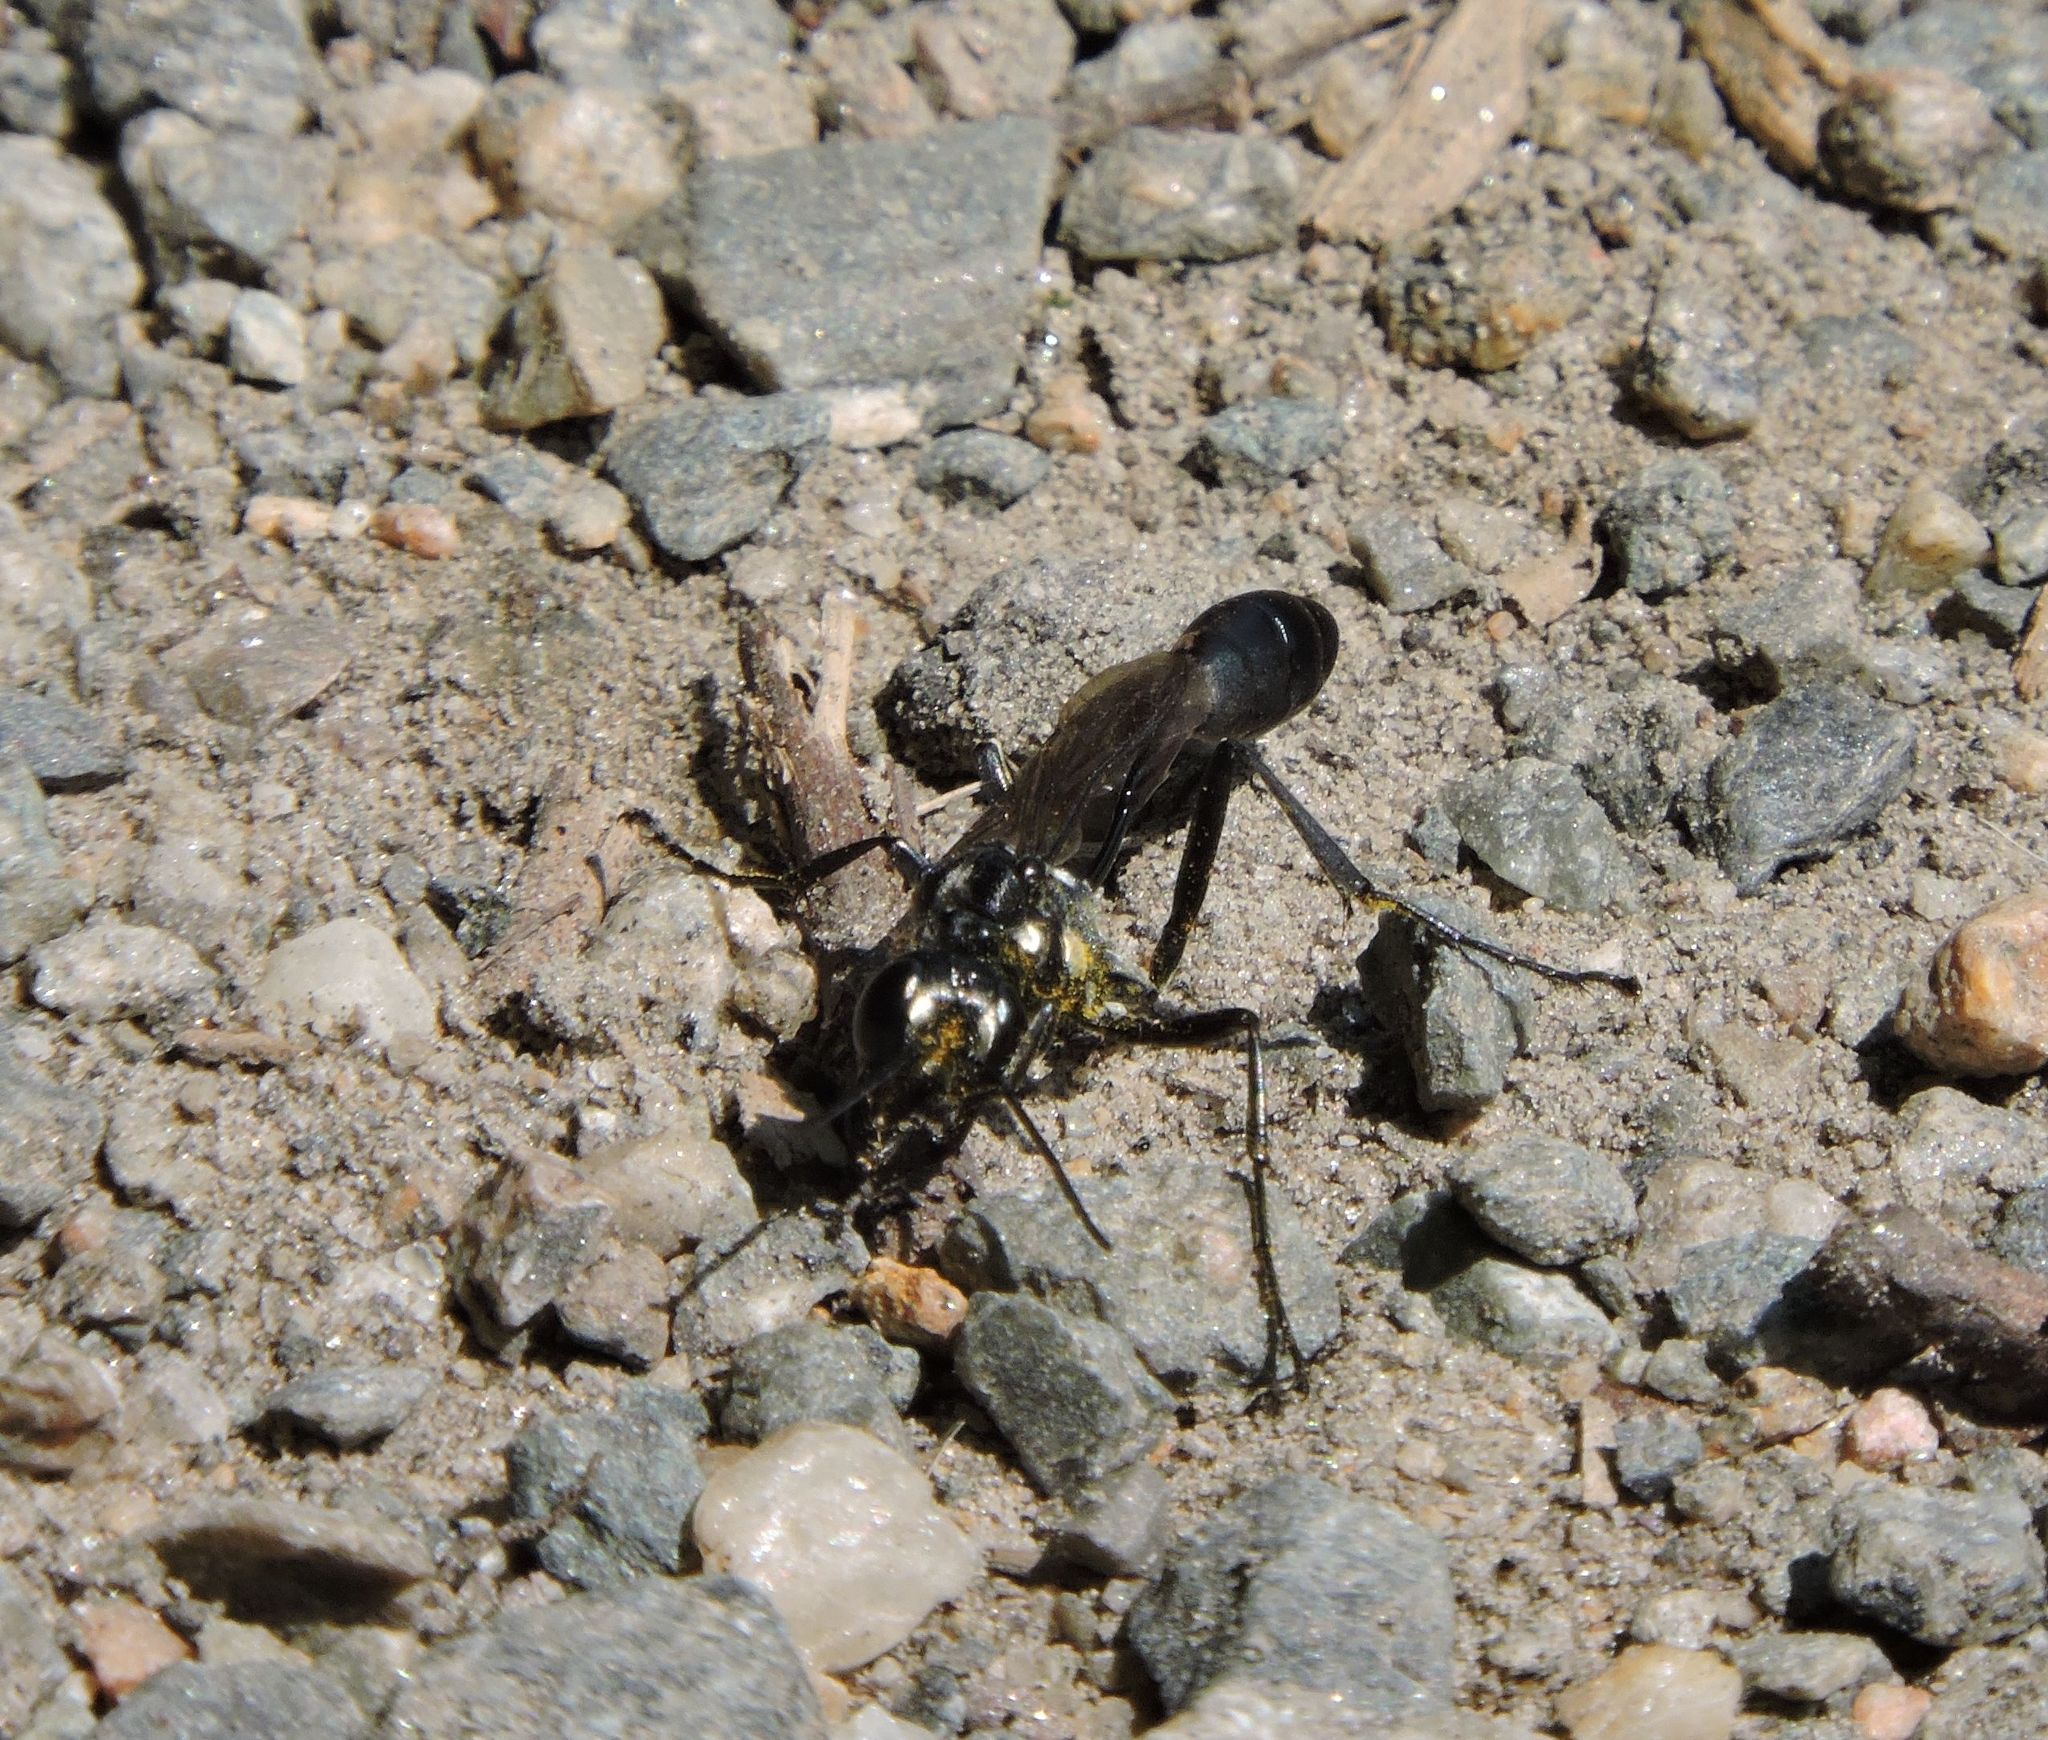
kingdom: Animalia
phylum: Arthropoda
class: Insecta
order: Hymenoptera
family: Sphecidae
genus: Eremnophila
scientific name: Eremnophila aureonotata
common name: Gold-marked thread-waisted wasp
